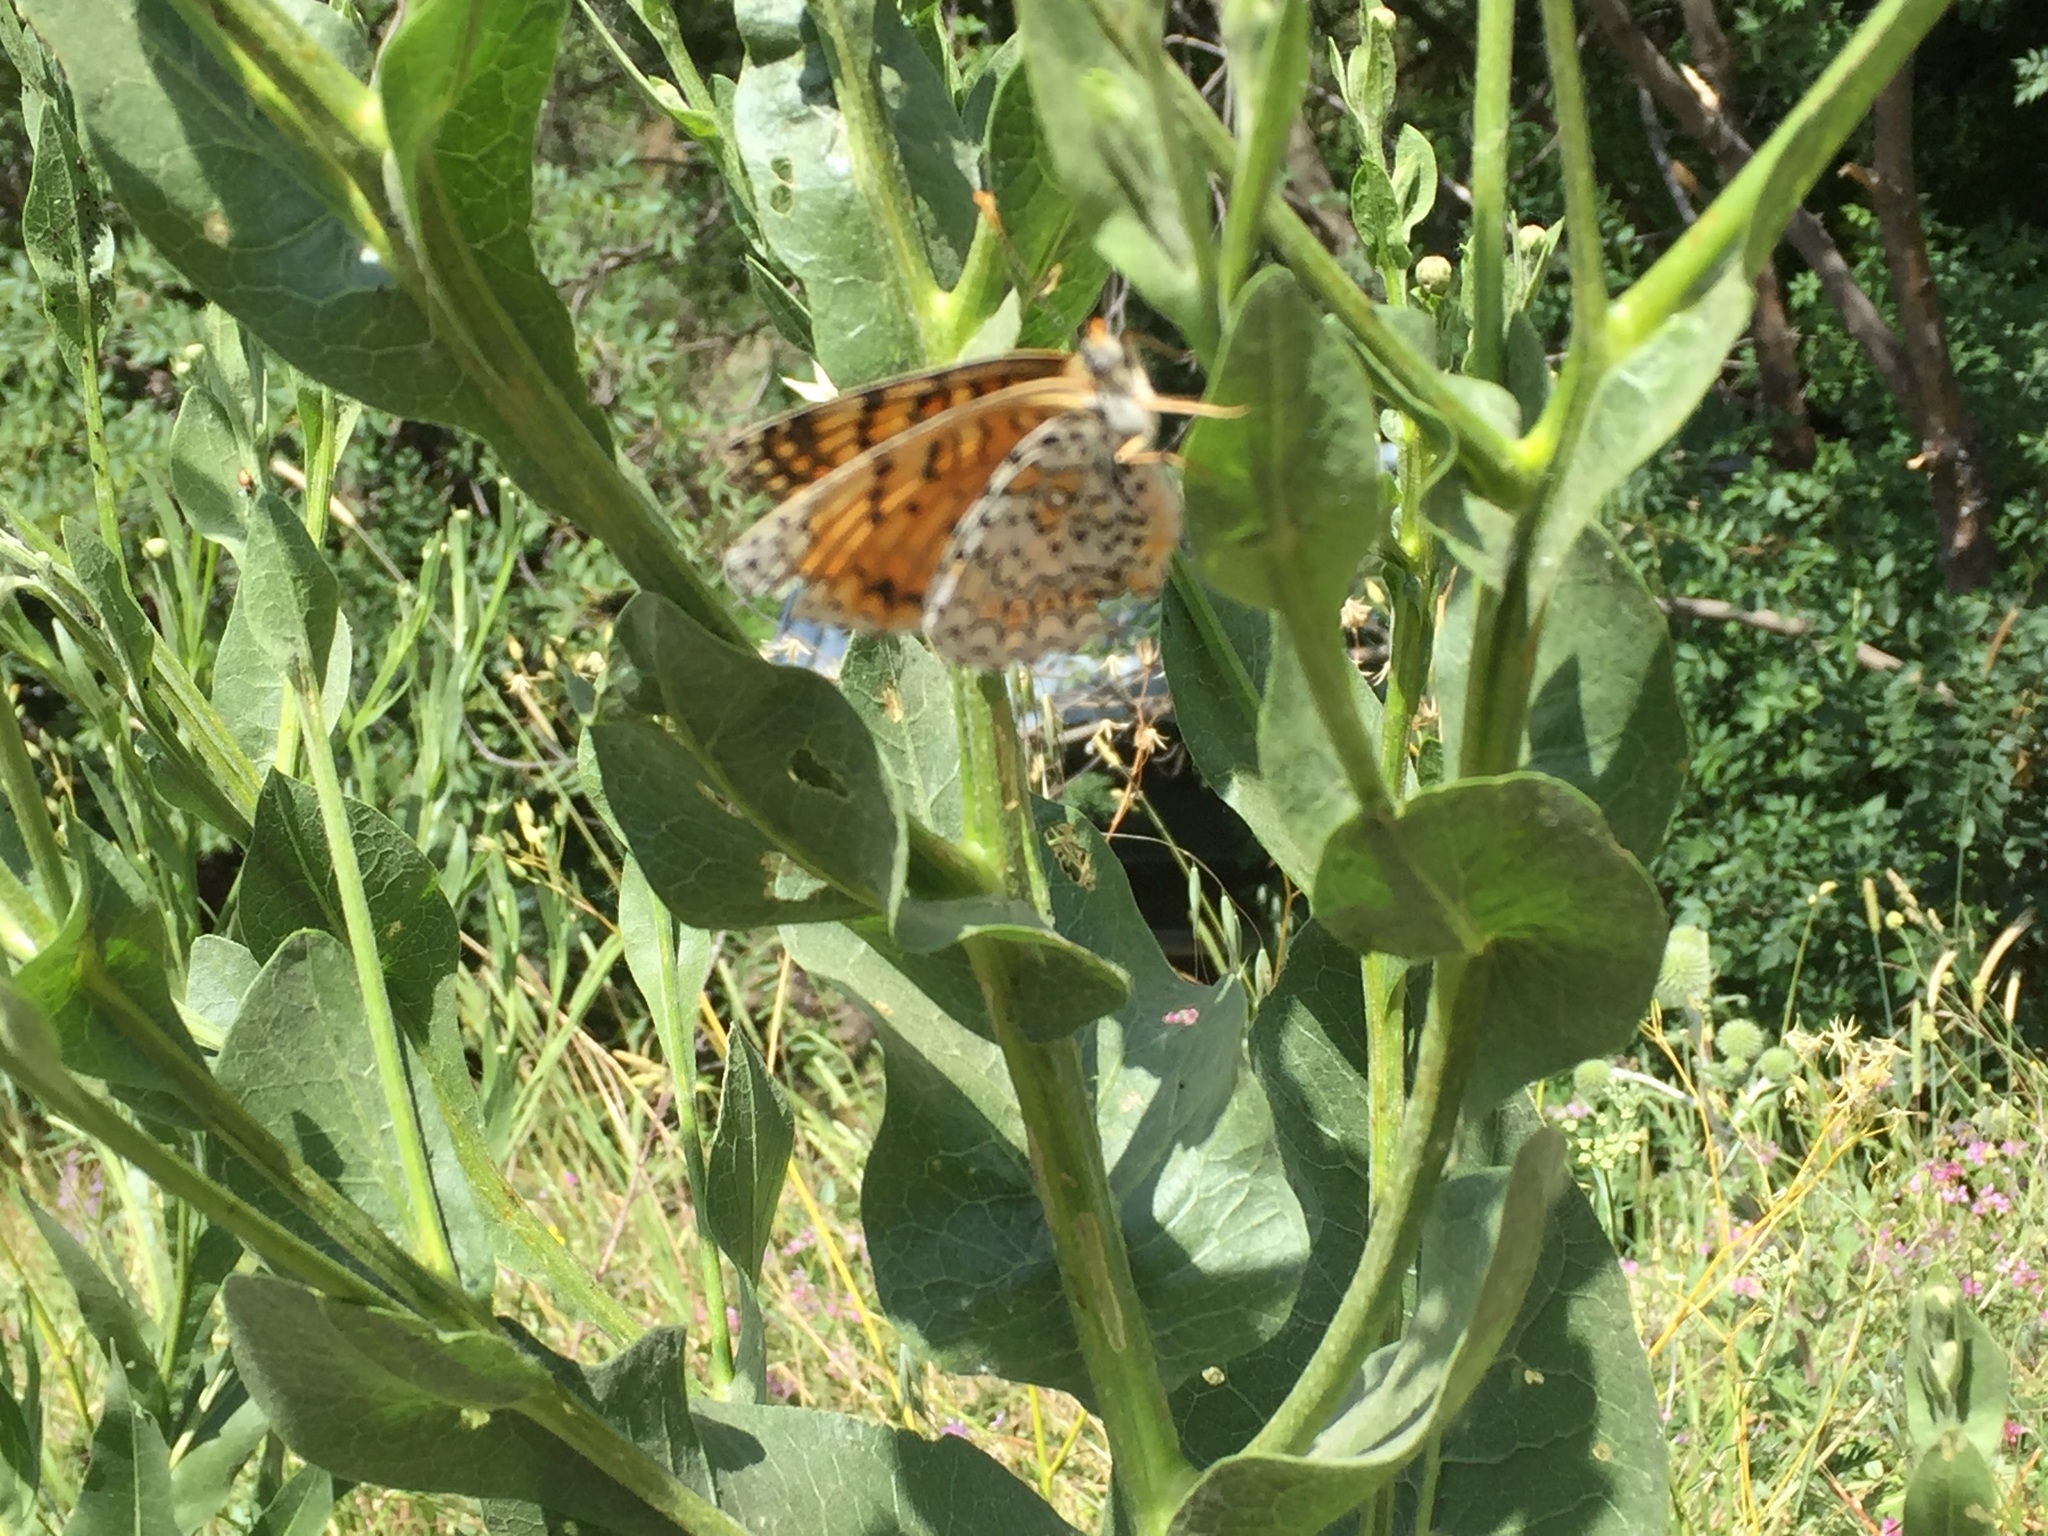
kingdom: Animalia
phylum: Arthropoda
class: Insecta
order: Lepidoptera
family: Nymphalidae
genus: Melitaea
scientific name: Melitaea arduinna
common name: Freyer's fritillary
